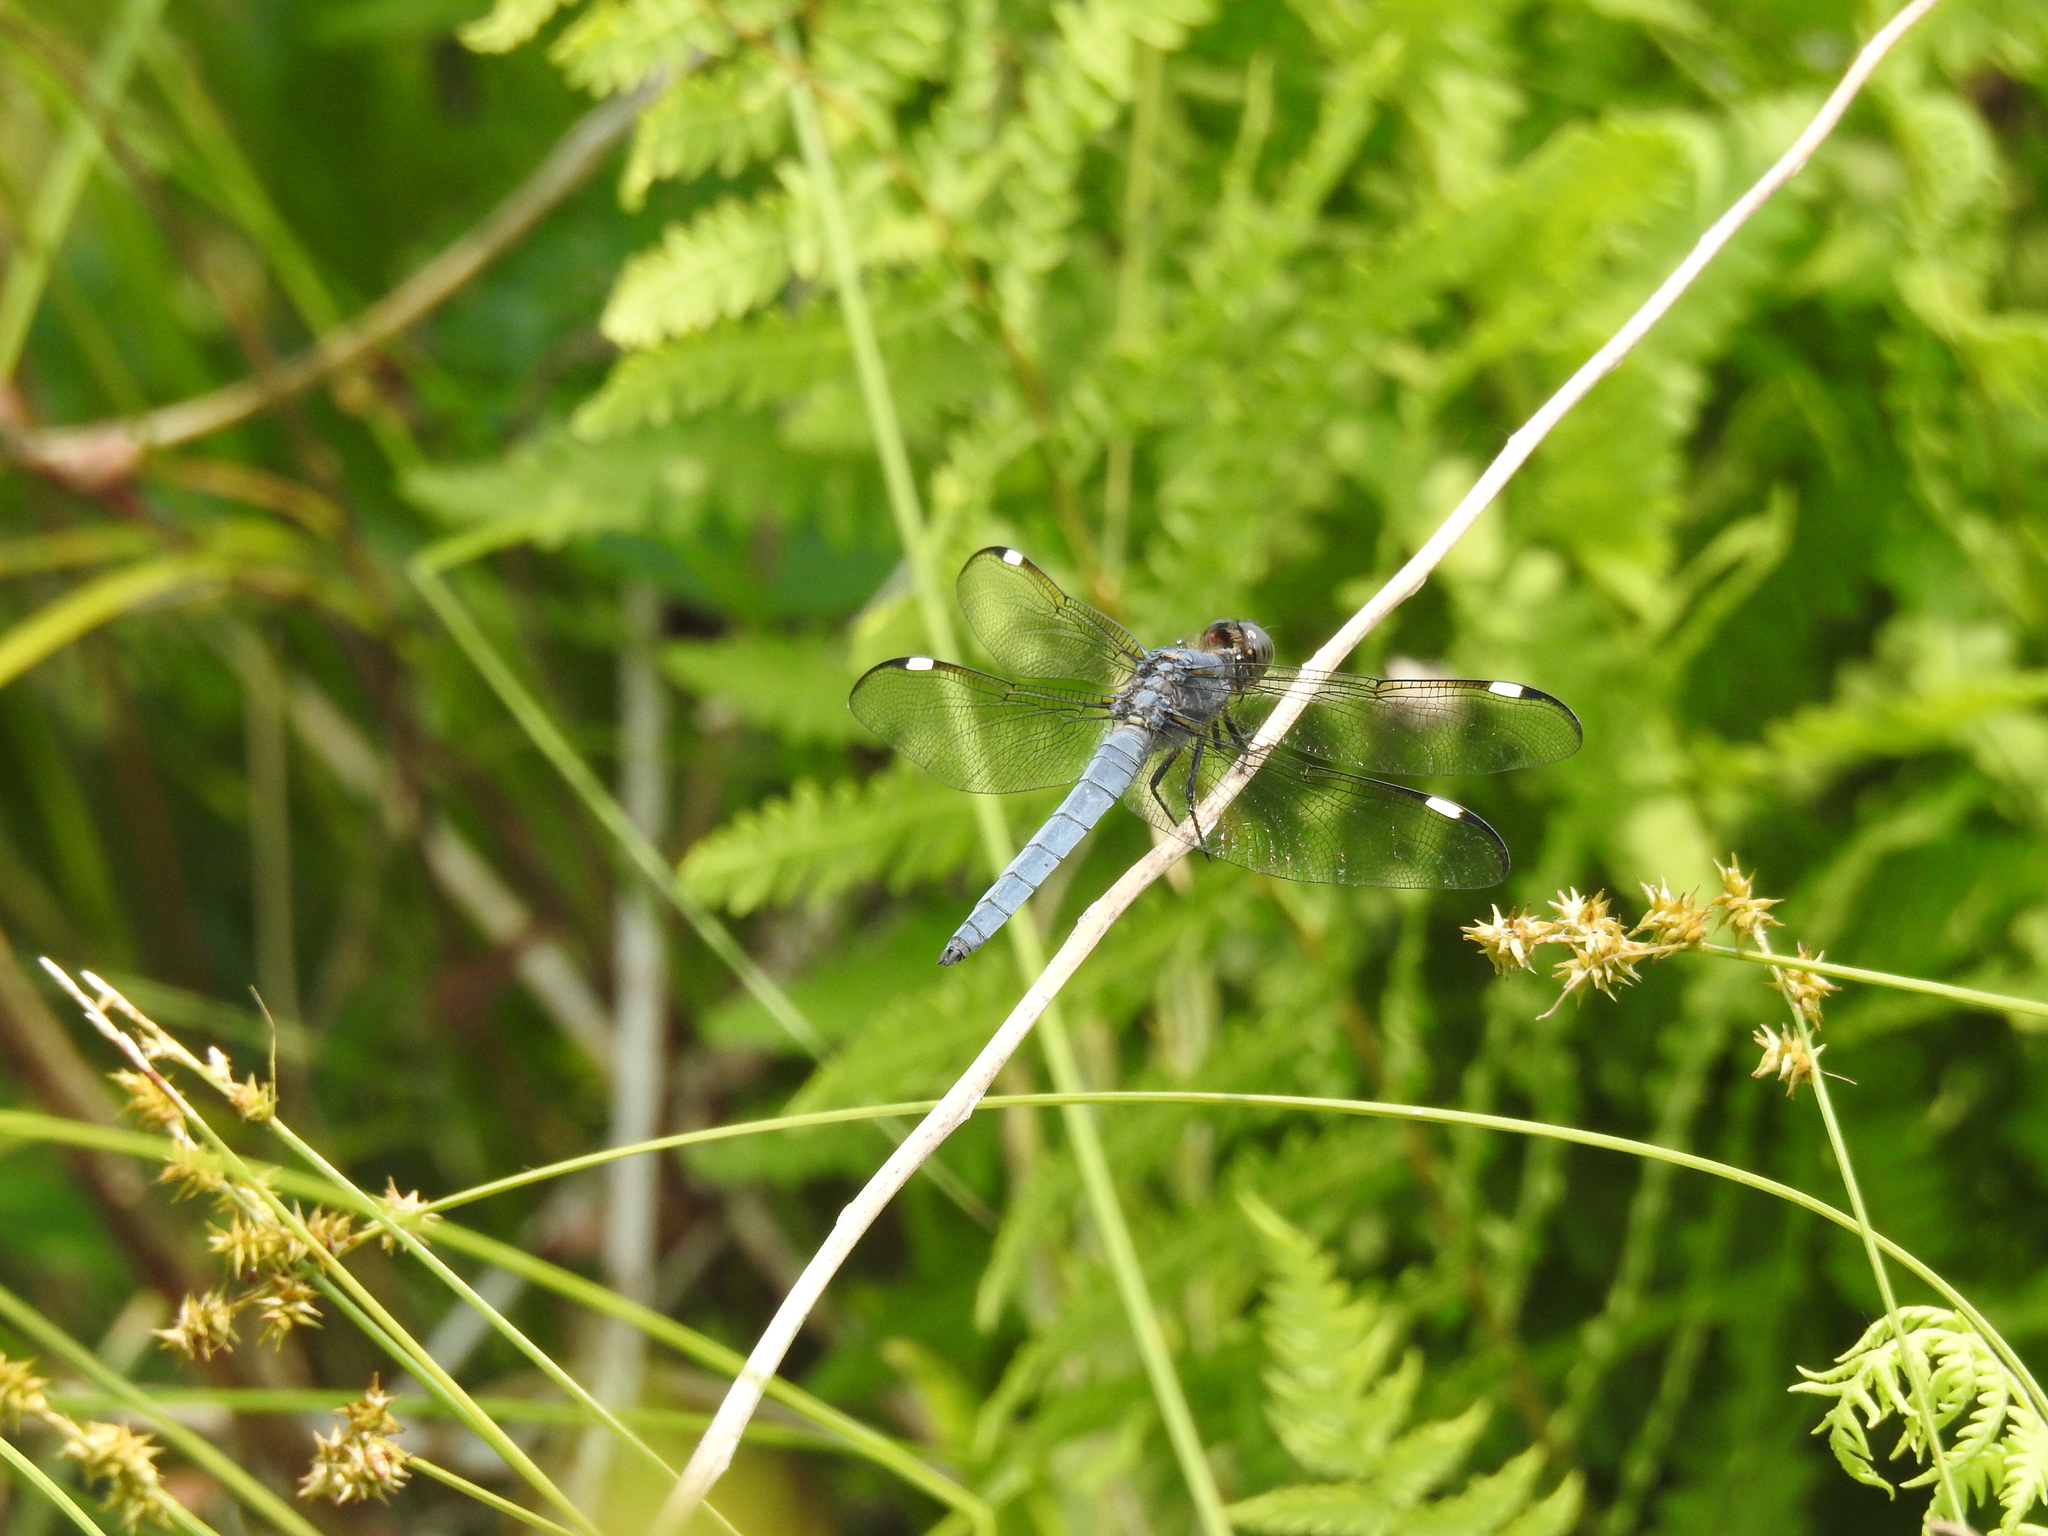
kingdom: Animalia
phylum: Arthropoda
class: Insecta
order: Odonata
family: Libellulidae
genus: Libellula
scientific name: Libellula cyanea
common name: Spangled skimmer
